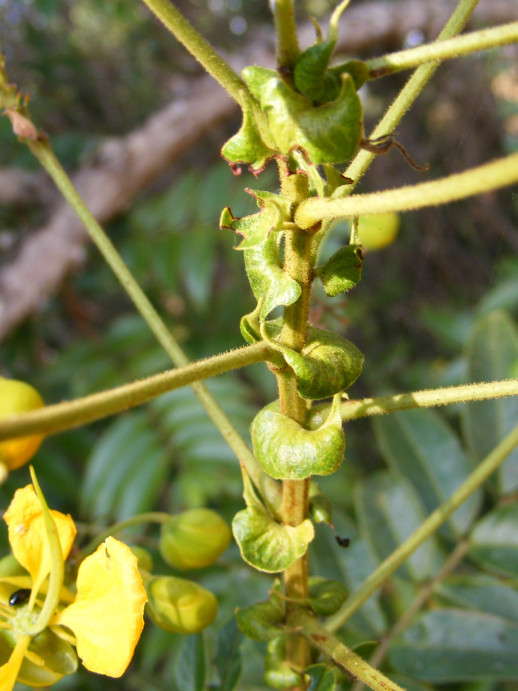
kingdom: Plantae
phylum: Tracheophyta
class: Magnoliopsida
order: Fabales
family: Fabaceae
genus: Senna
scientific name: Senna petersiana
